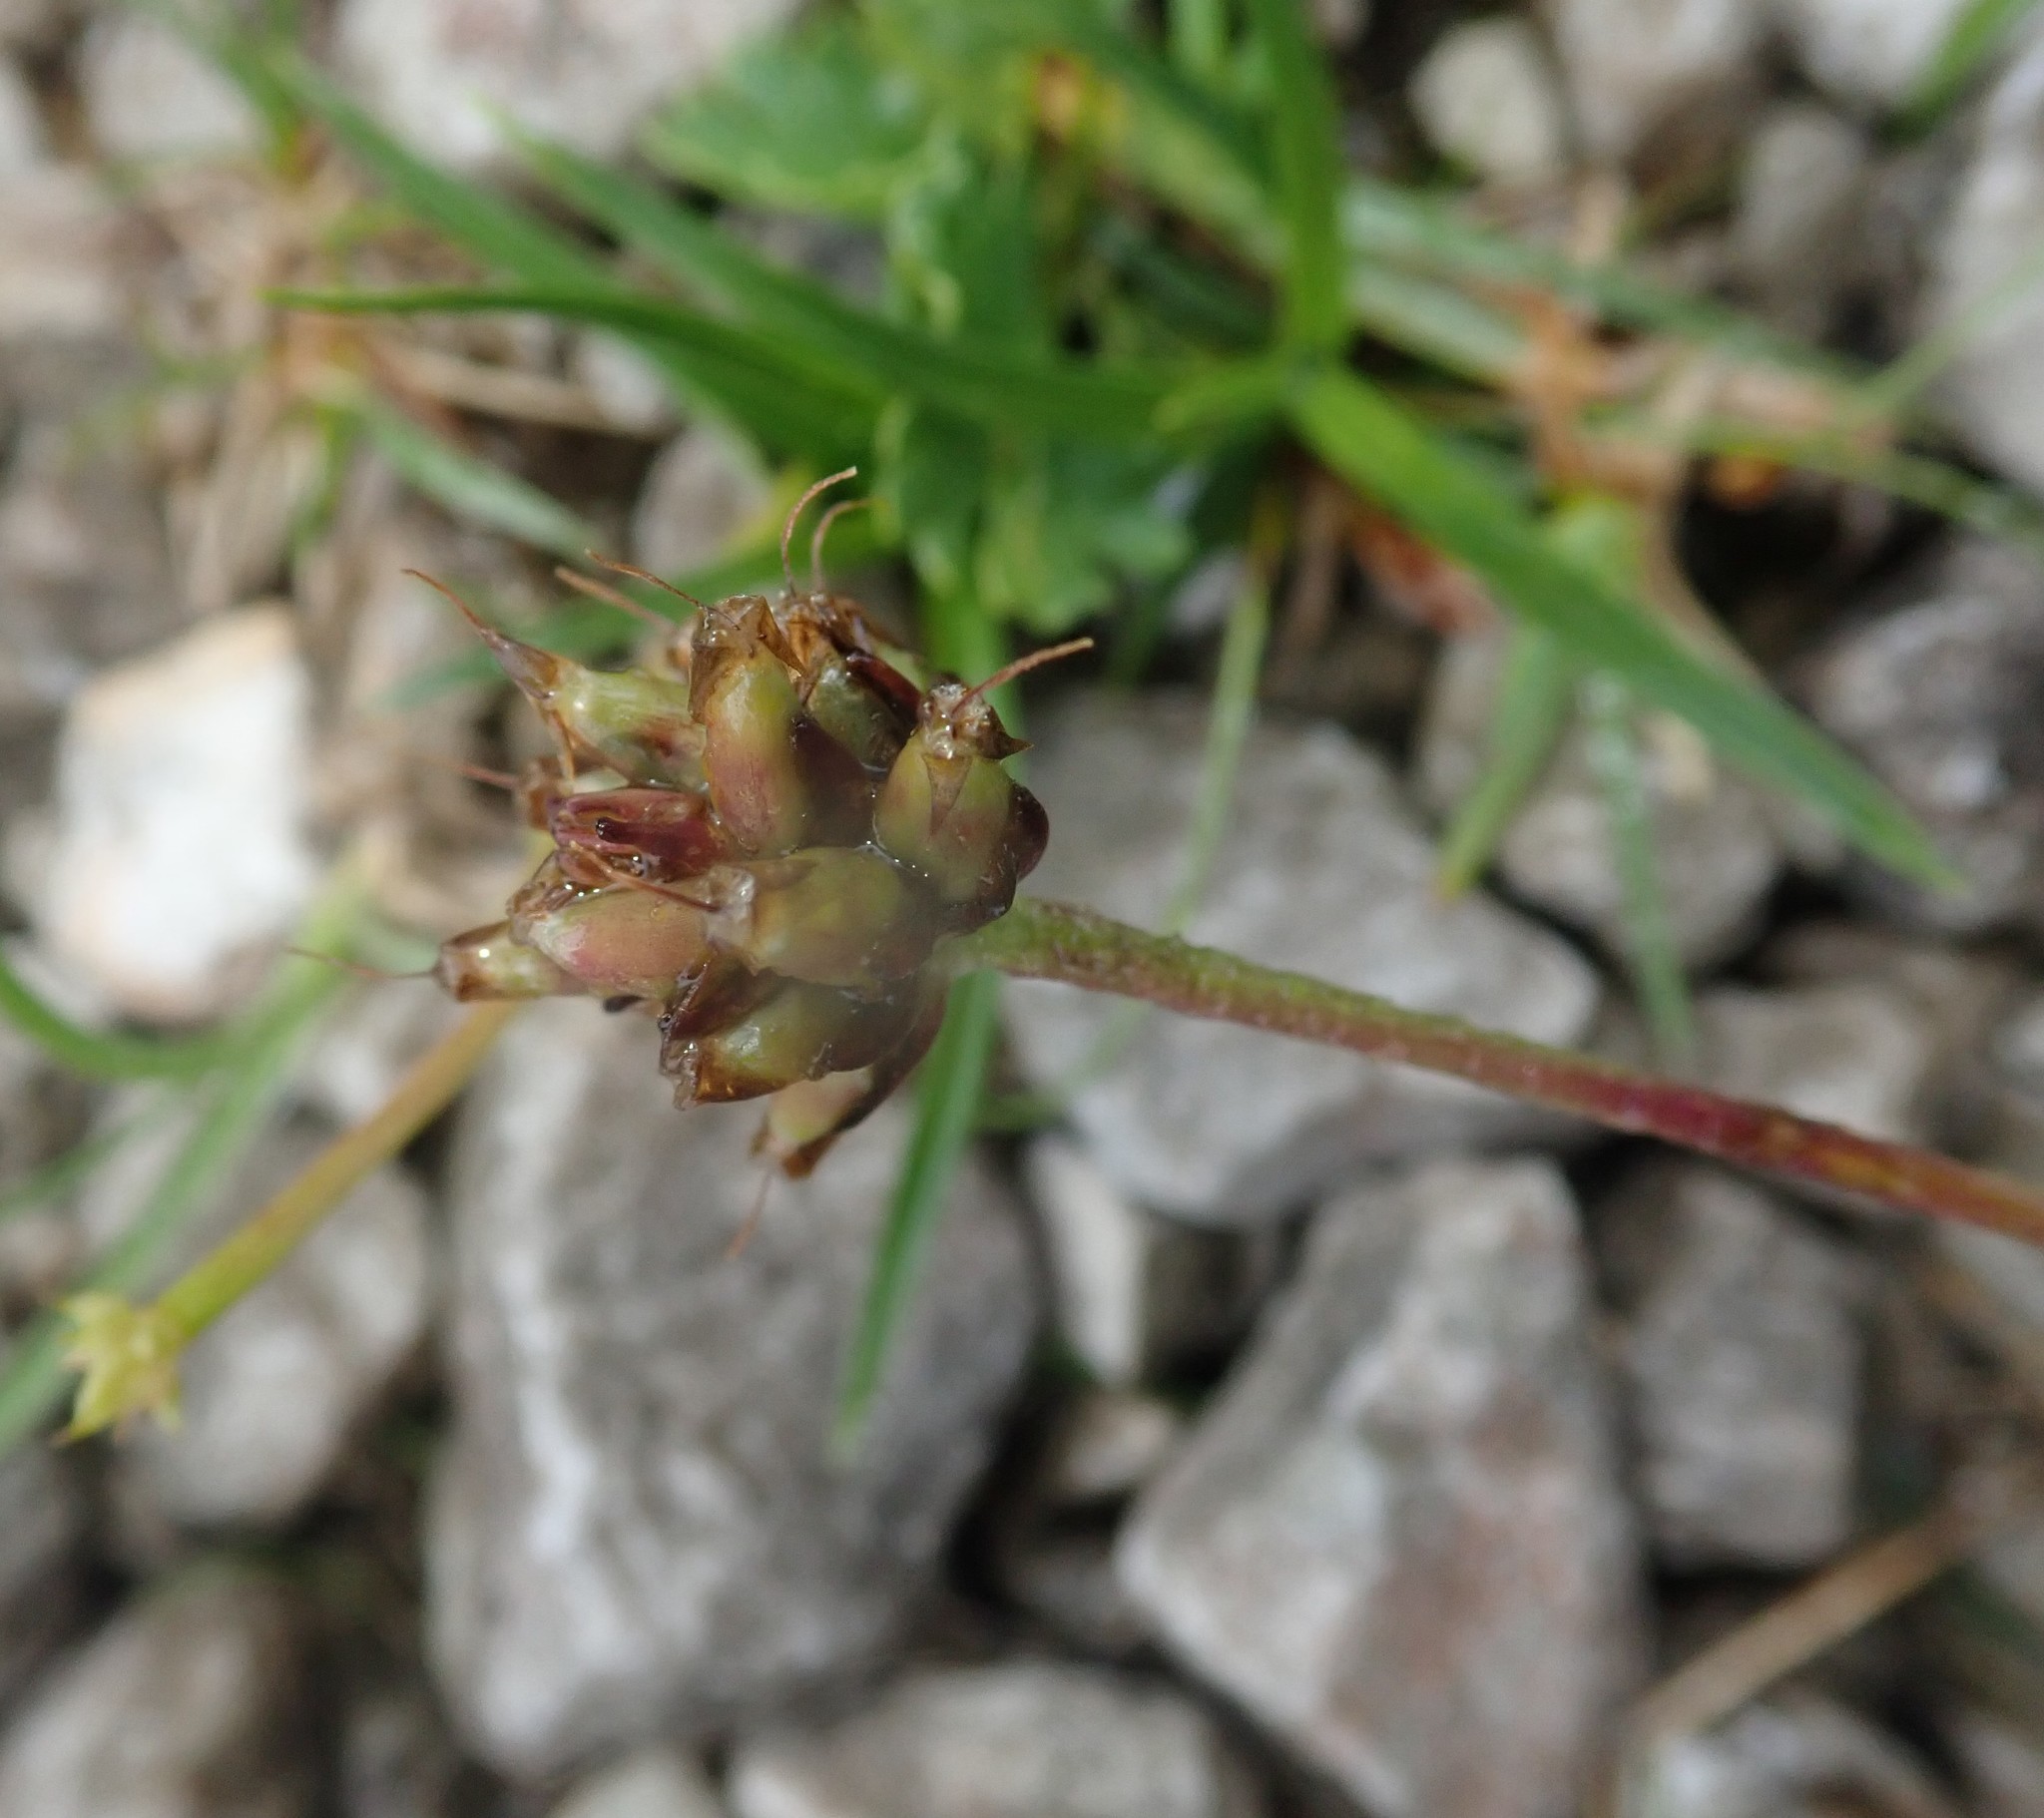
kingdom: Plantae
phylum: Tracheophyta
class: Magnoliopsida
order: Lamiales
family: Plantaginaceae
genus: Plantago
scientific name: Plantago atrata
